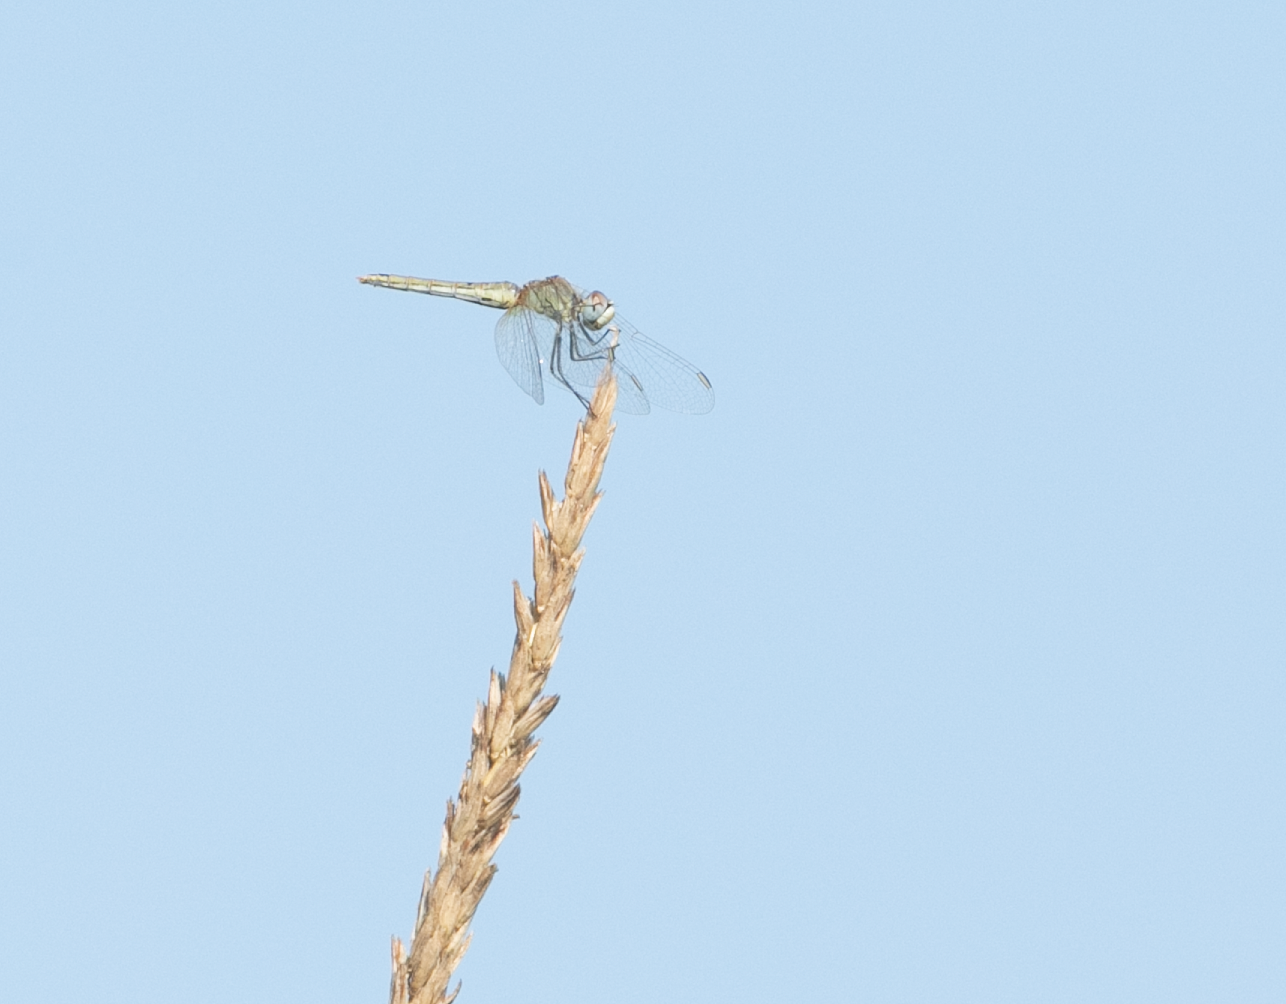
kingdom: Animalia
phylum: Arthropoda
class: Insecta
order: Odonata
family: Libellulidae
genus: Sympetrum
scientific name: Sympetrum fonscolombii
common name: Red-veined darter
